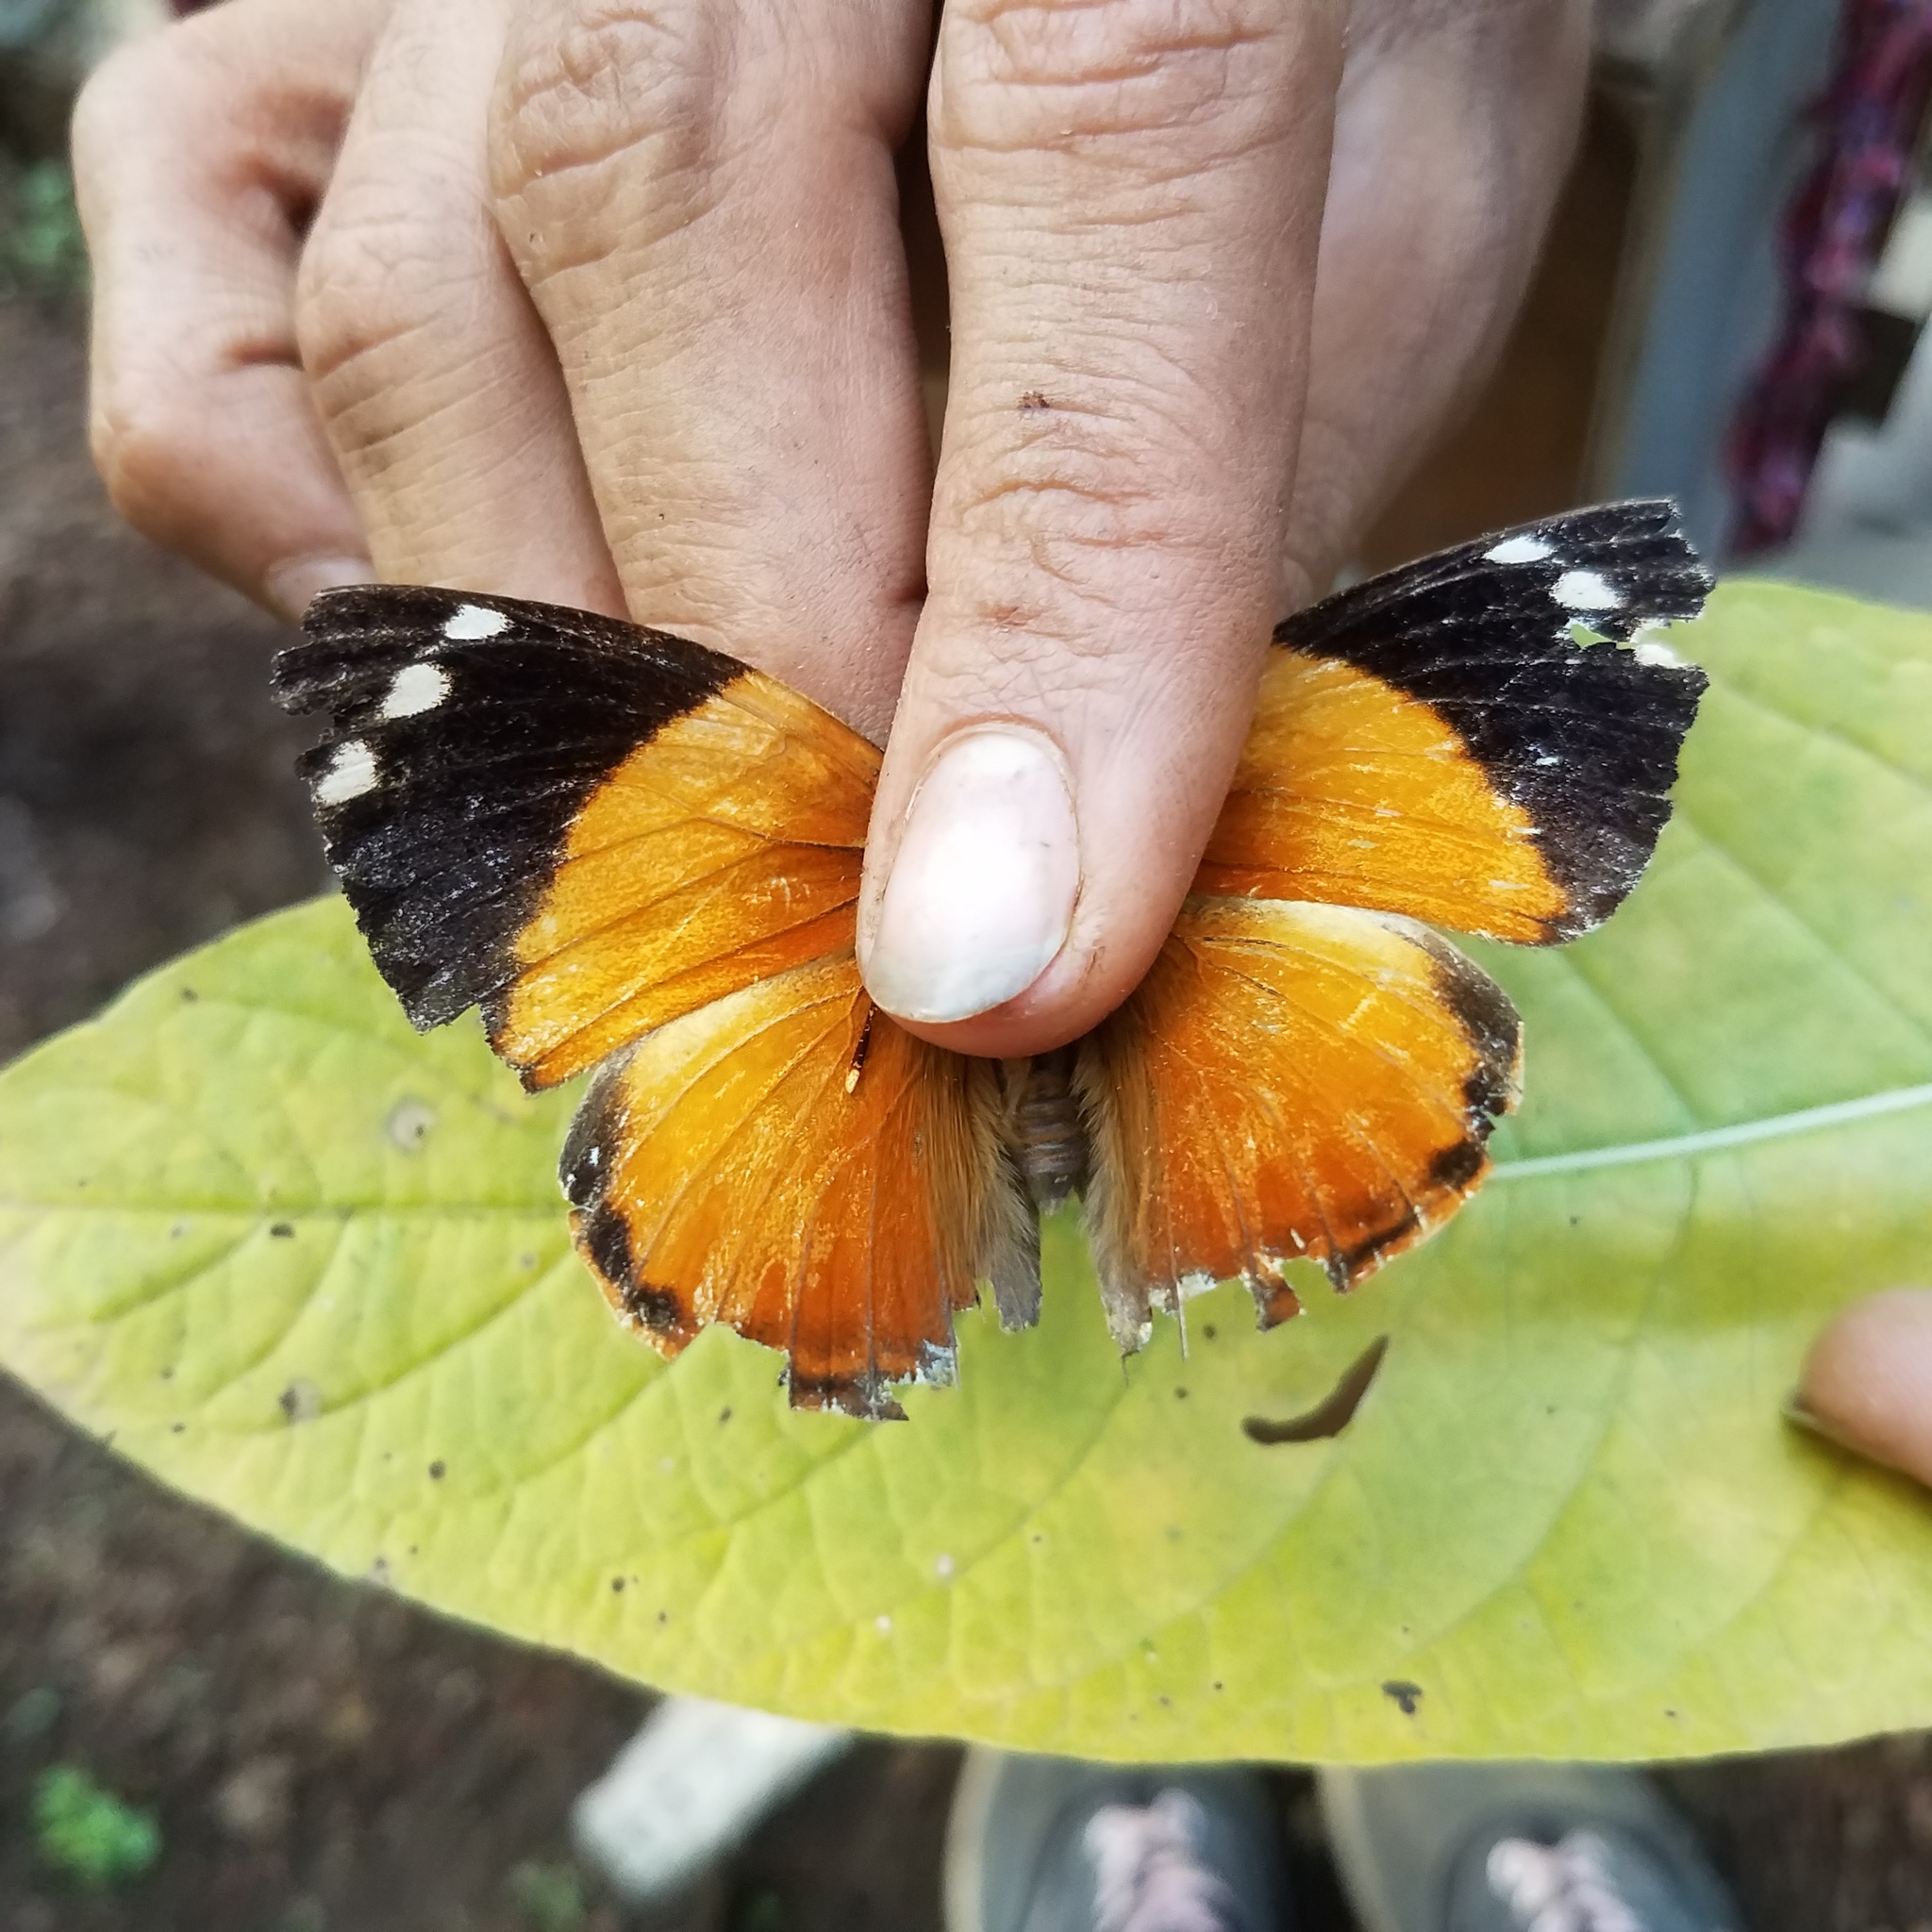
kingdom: Animalia
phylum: Arthropoda
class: Insecta
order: Lepidoptera
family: Nymphalidae
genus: Smyrna
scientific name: Smyrna blomfildia
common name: Blomfild's beauty
